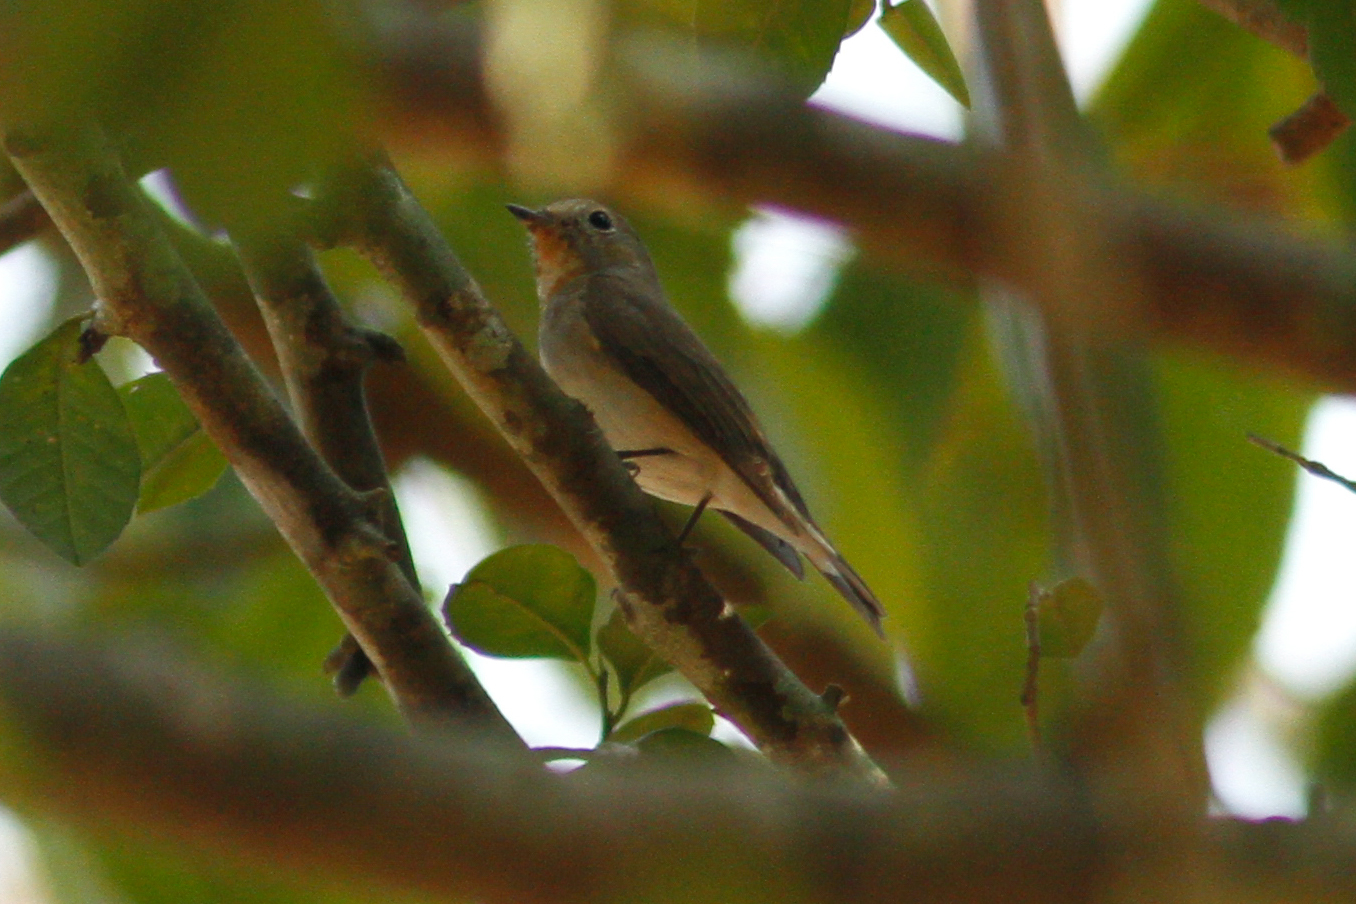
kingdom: Animalia
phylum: Chordata
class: Aves
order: Passeriformes
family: Muscicapidae
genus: Ficedula
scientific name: Ficedula albicilla
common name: Taiga flycatcher
